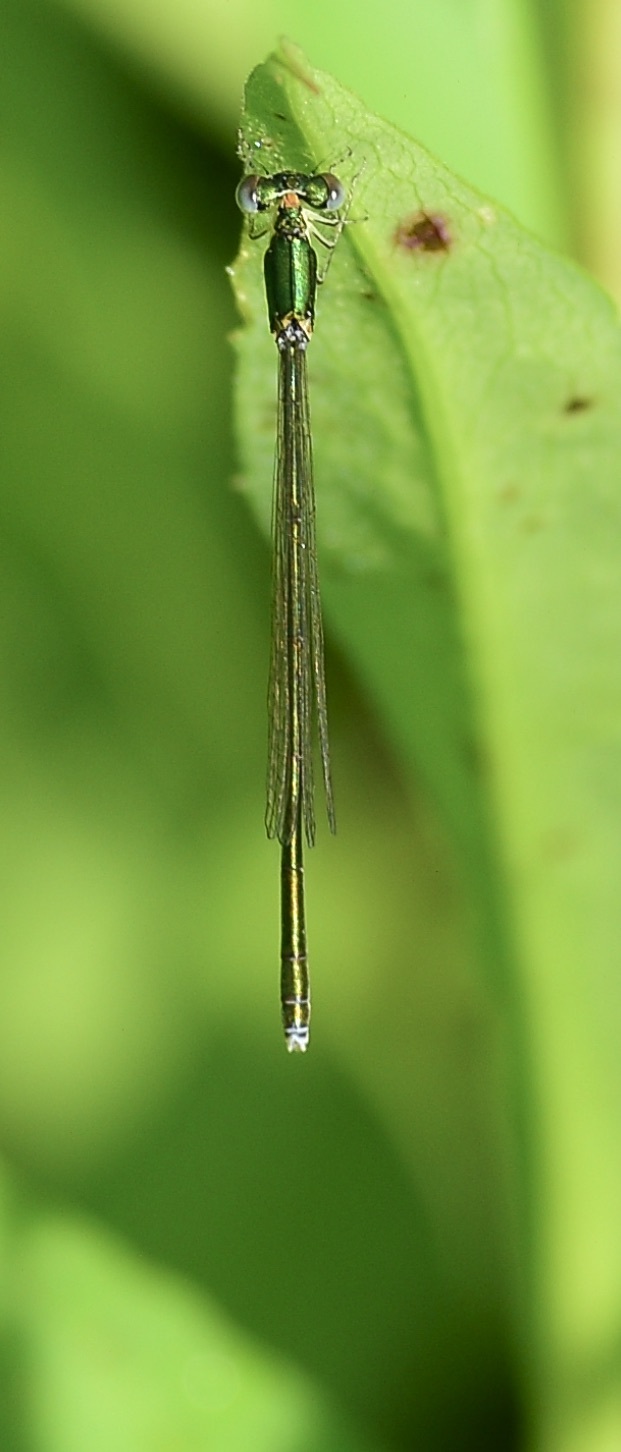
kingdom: Animalia
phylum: Arthropoda
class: Insecta
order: Odonata
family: Coenagrionidae
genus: Nehalennia
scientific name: Nehalennia irene
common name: Sedge sprite
